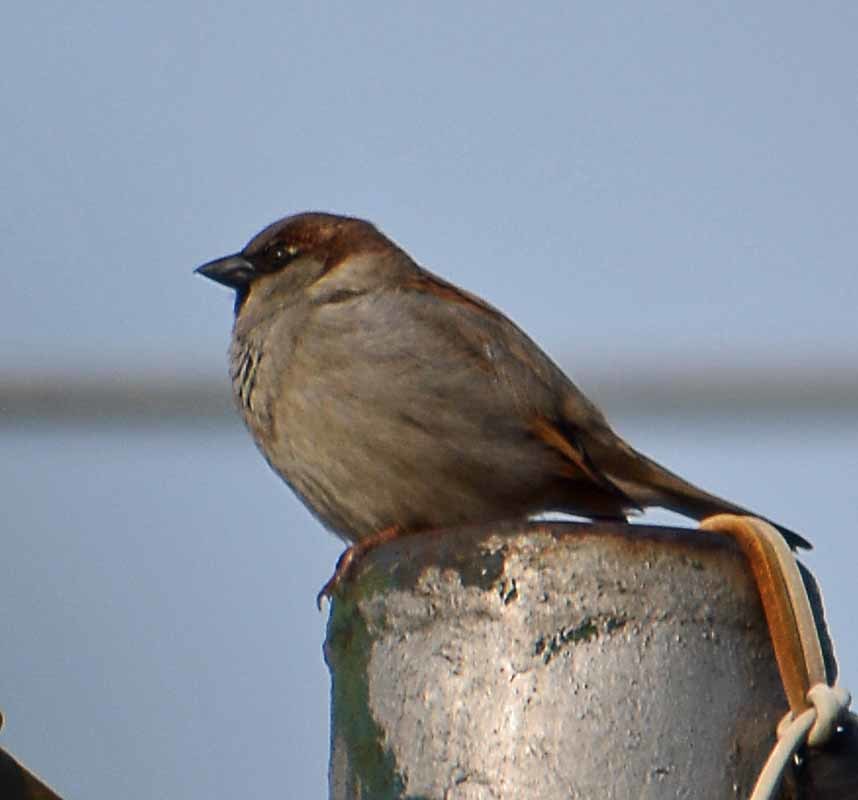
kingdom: Animalia
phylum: Chordata
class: Aves
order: Passeriformes
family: Passeridae
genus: Passer
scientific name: Passer domesticus
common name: House sparrow
